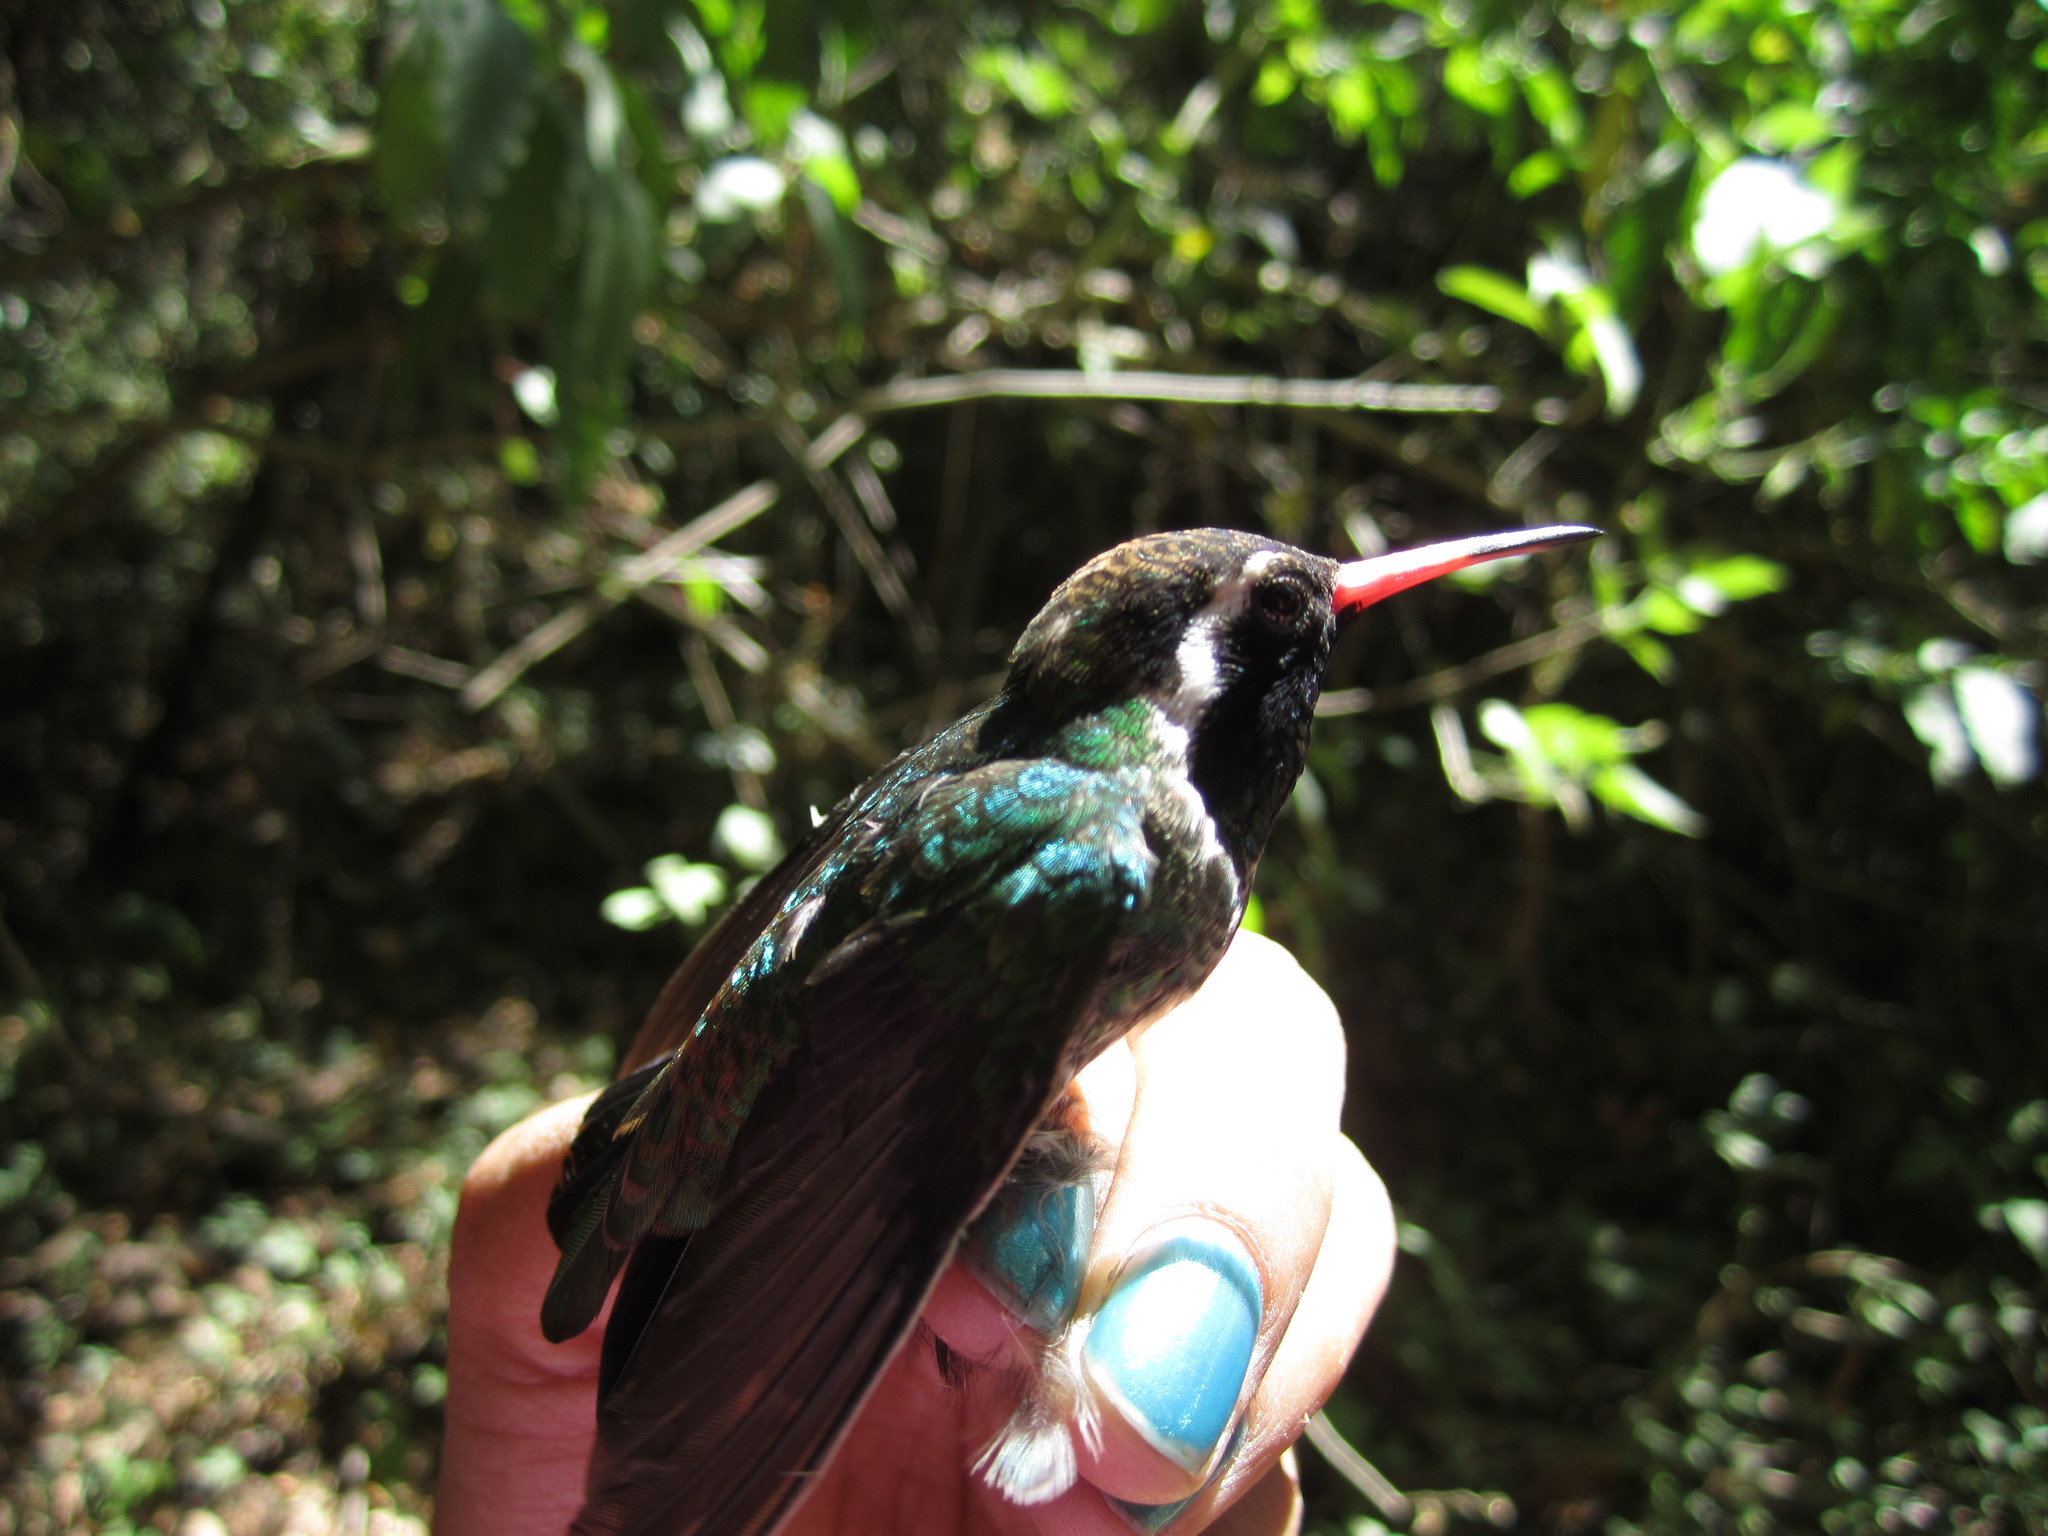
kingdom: Animalia
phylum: Chordata
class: Aves
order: Apodiformes
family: Trochilidae
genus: Basilinna
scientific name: Basilinna leucotis
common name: White-eared hummingbird
